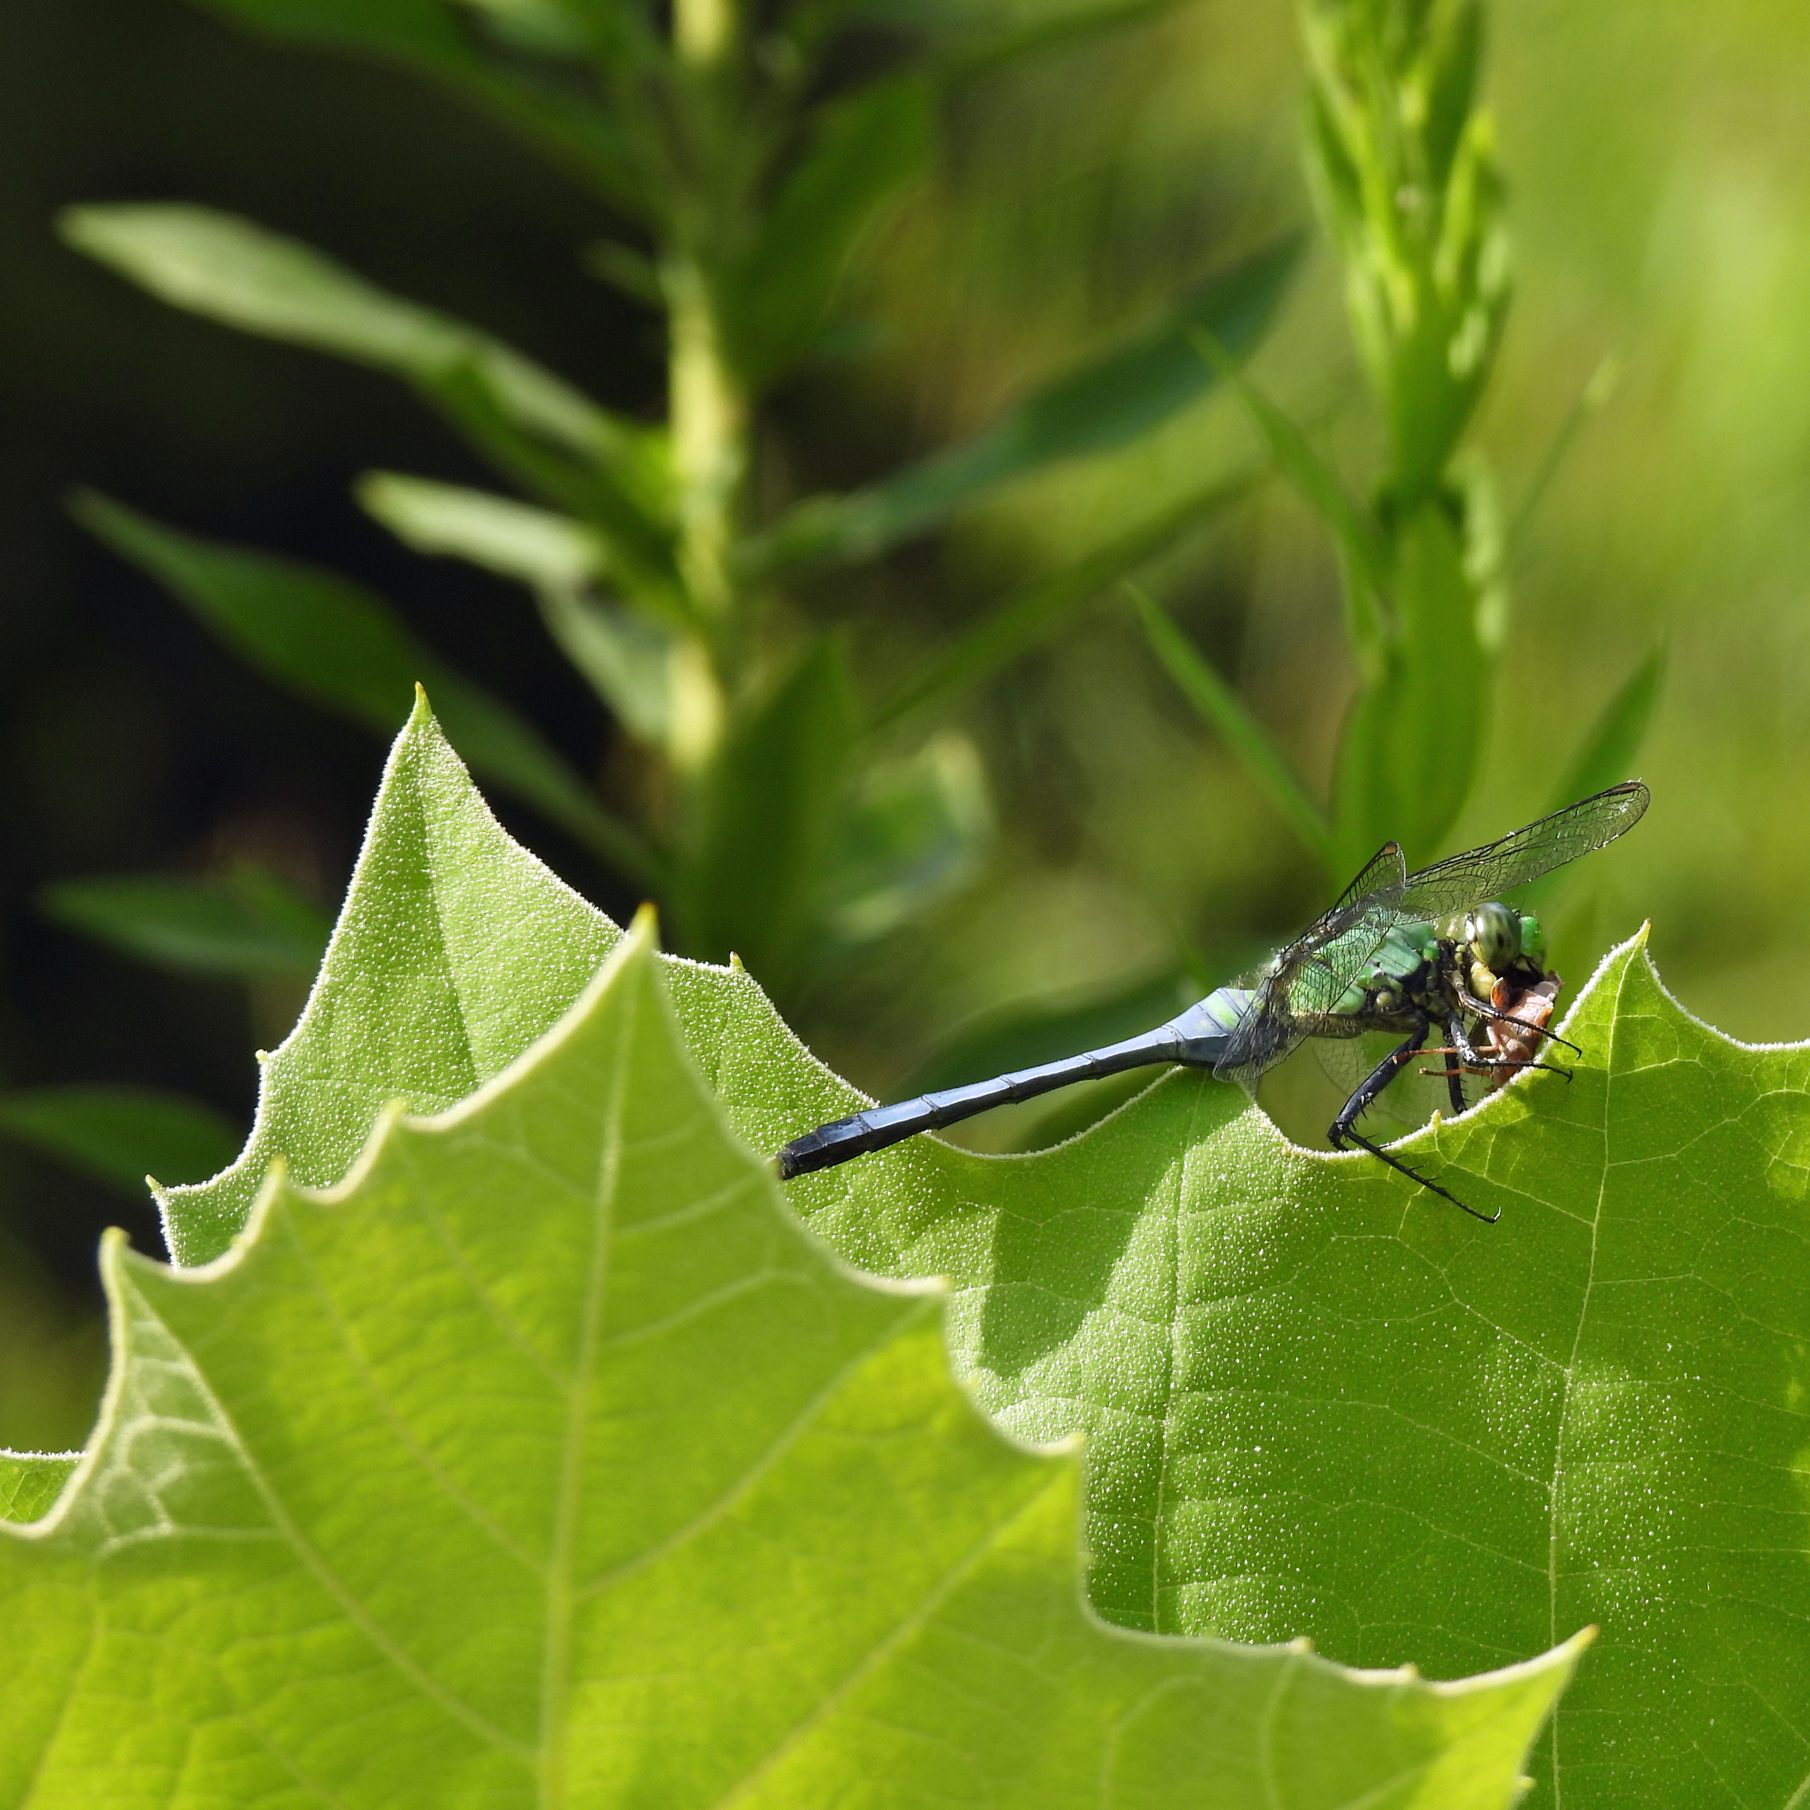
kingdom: Animalia
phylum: Arthropoda
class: Insecta
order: Odonata
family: Libellulidae
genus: Erythemis
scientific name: Erythemis simplicicollis
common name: Eastern pondhawk
